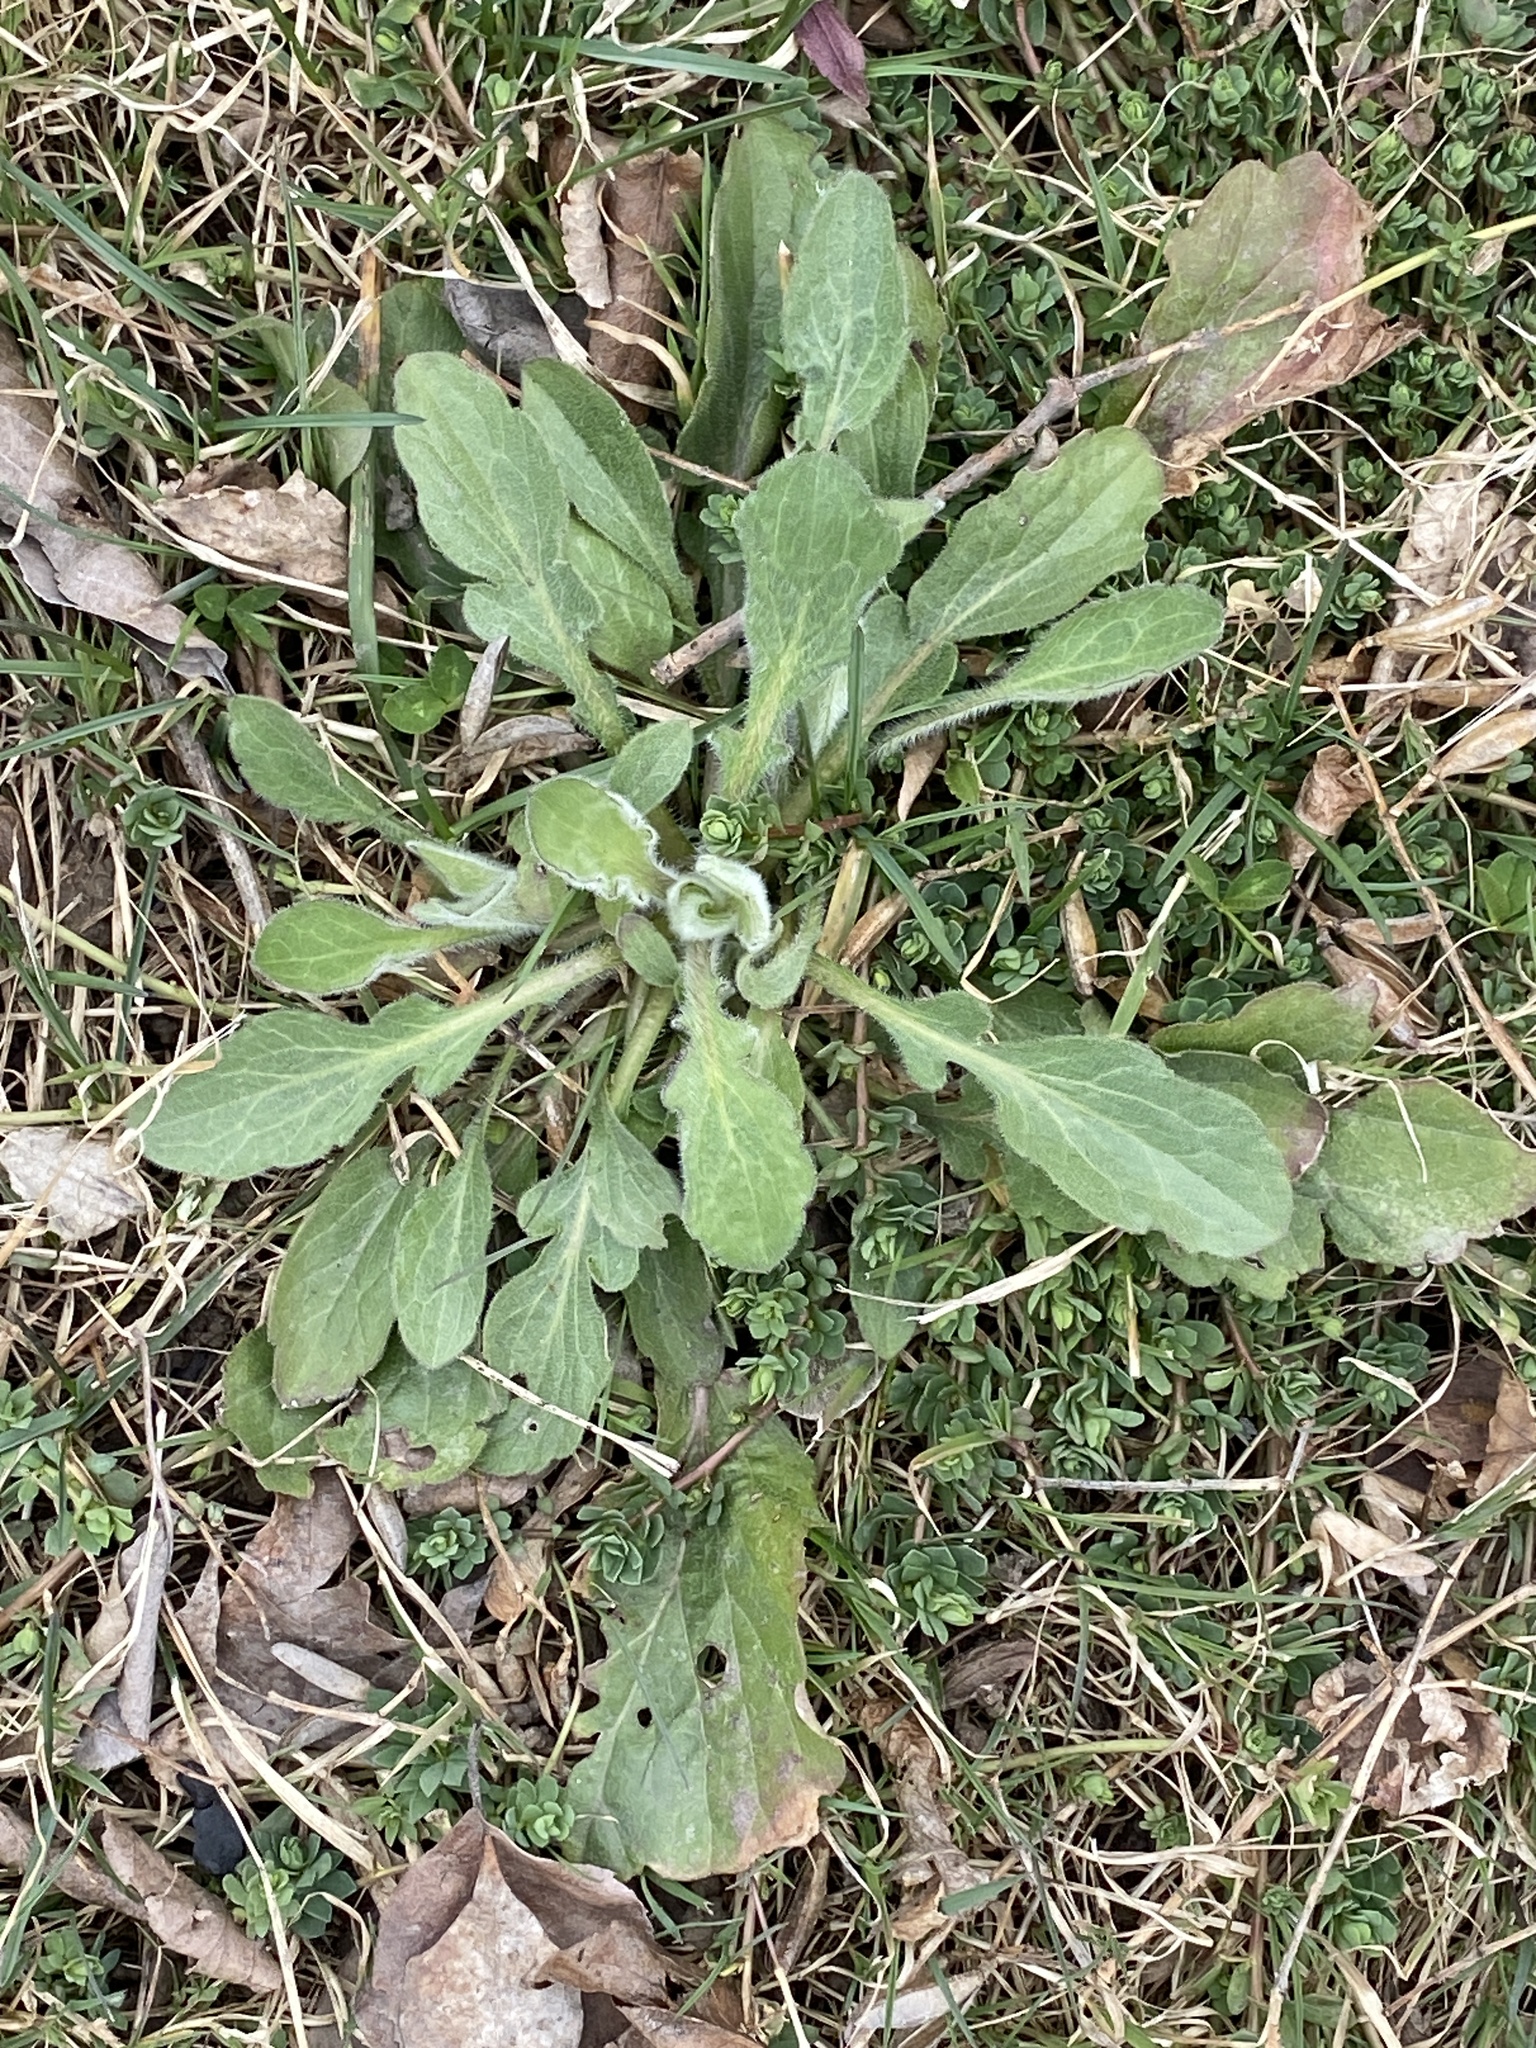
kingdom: Plantae
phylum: Tracheophyta
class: Magnoliopsida
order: Asterales
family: Asteraceae
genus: Erigeron
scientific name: Erigeron canadensis
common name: Canadian fleabane
